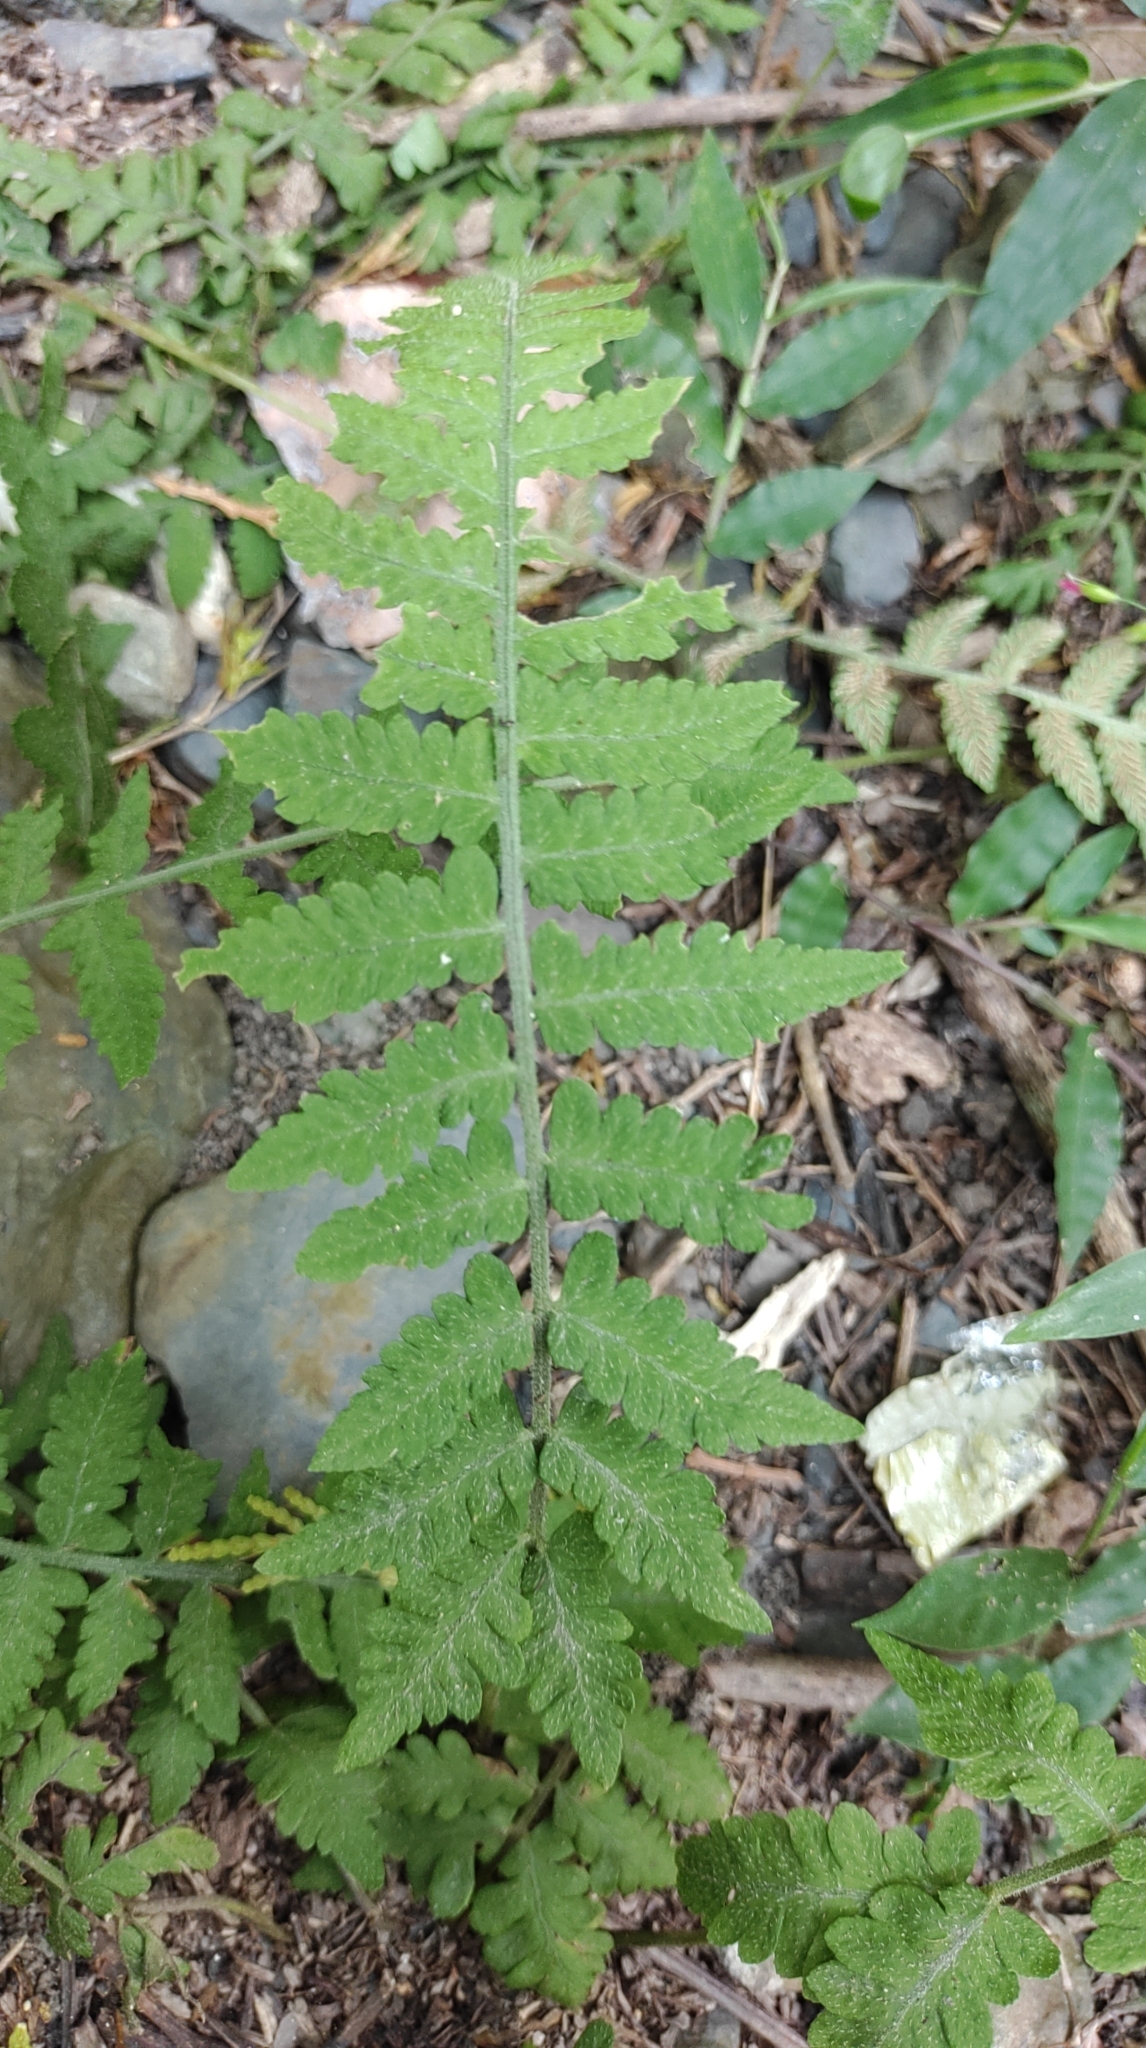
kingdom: Plantae
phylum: Tracheophyta
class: Polypodiopsida
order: Polypodiales
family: Athyriaceae
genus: Deparia
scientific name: Deparia petersenii
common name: Japanese false spleenwort
